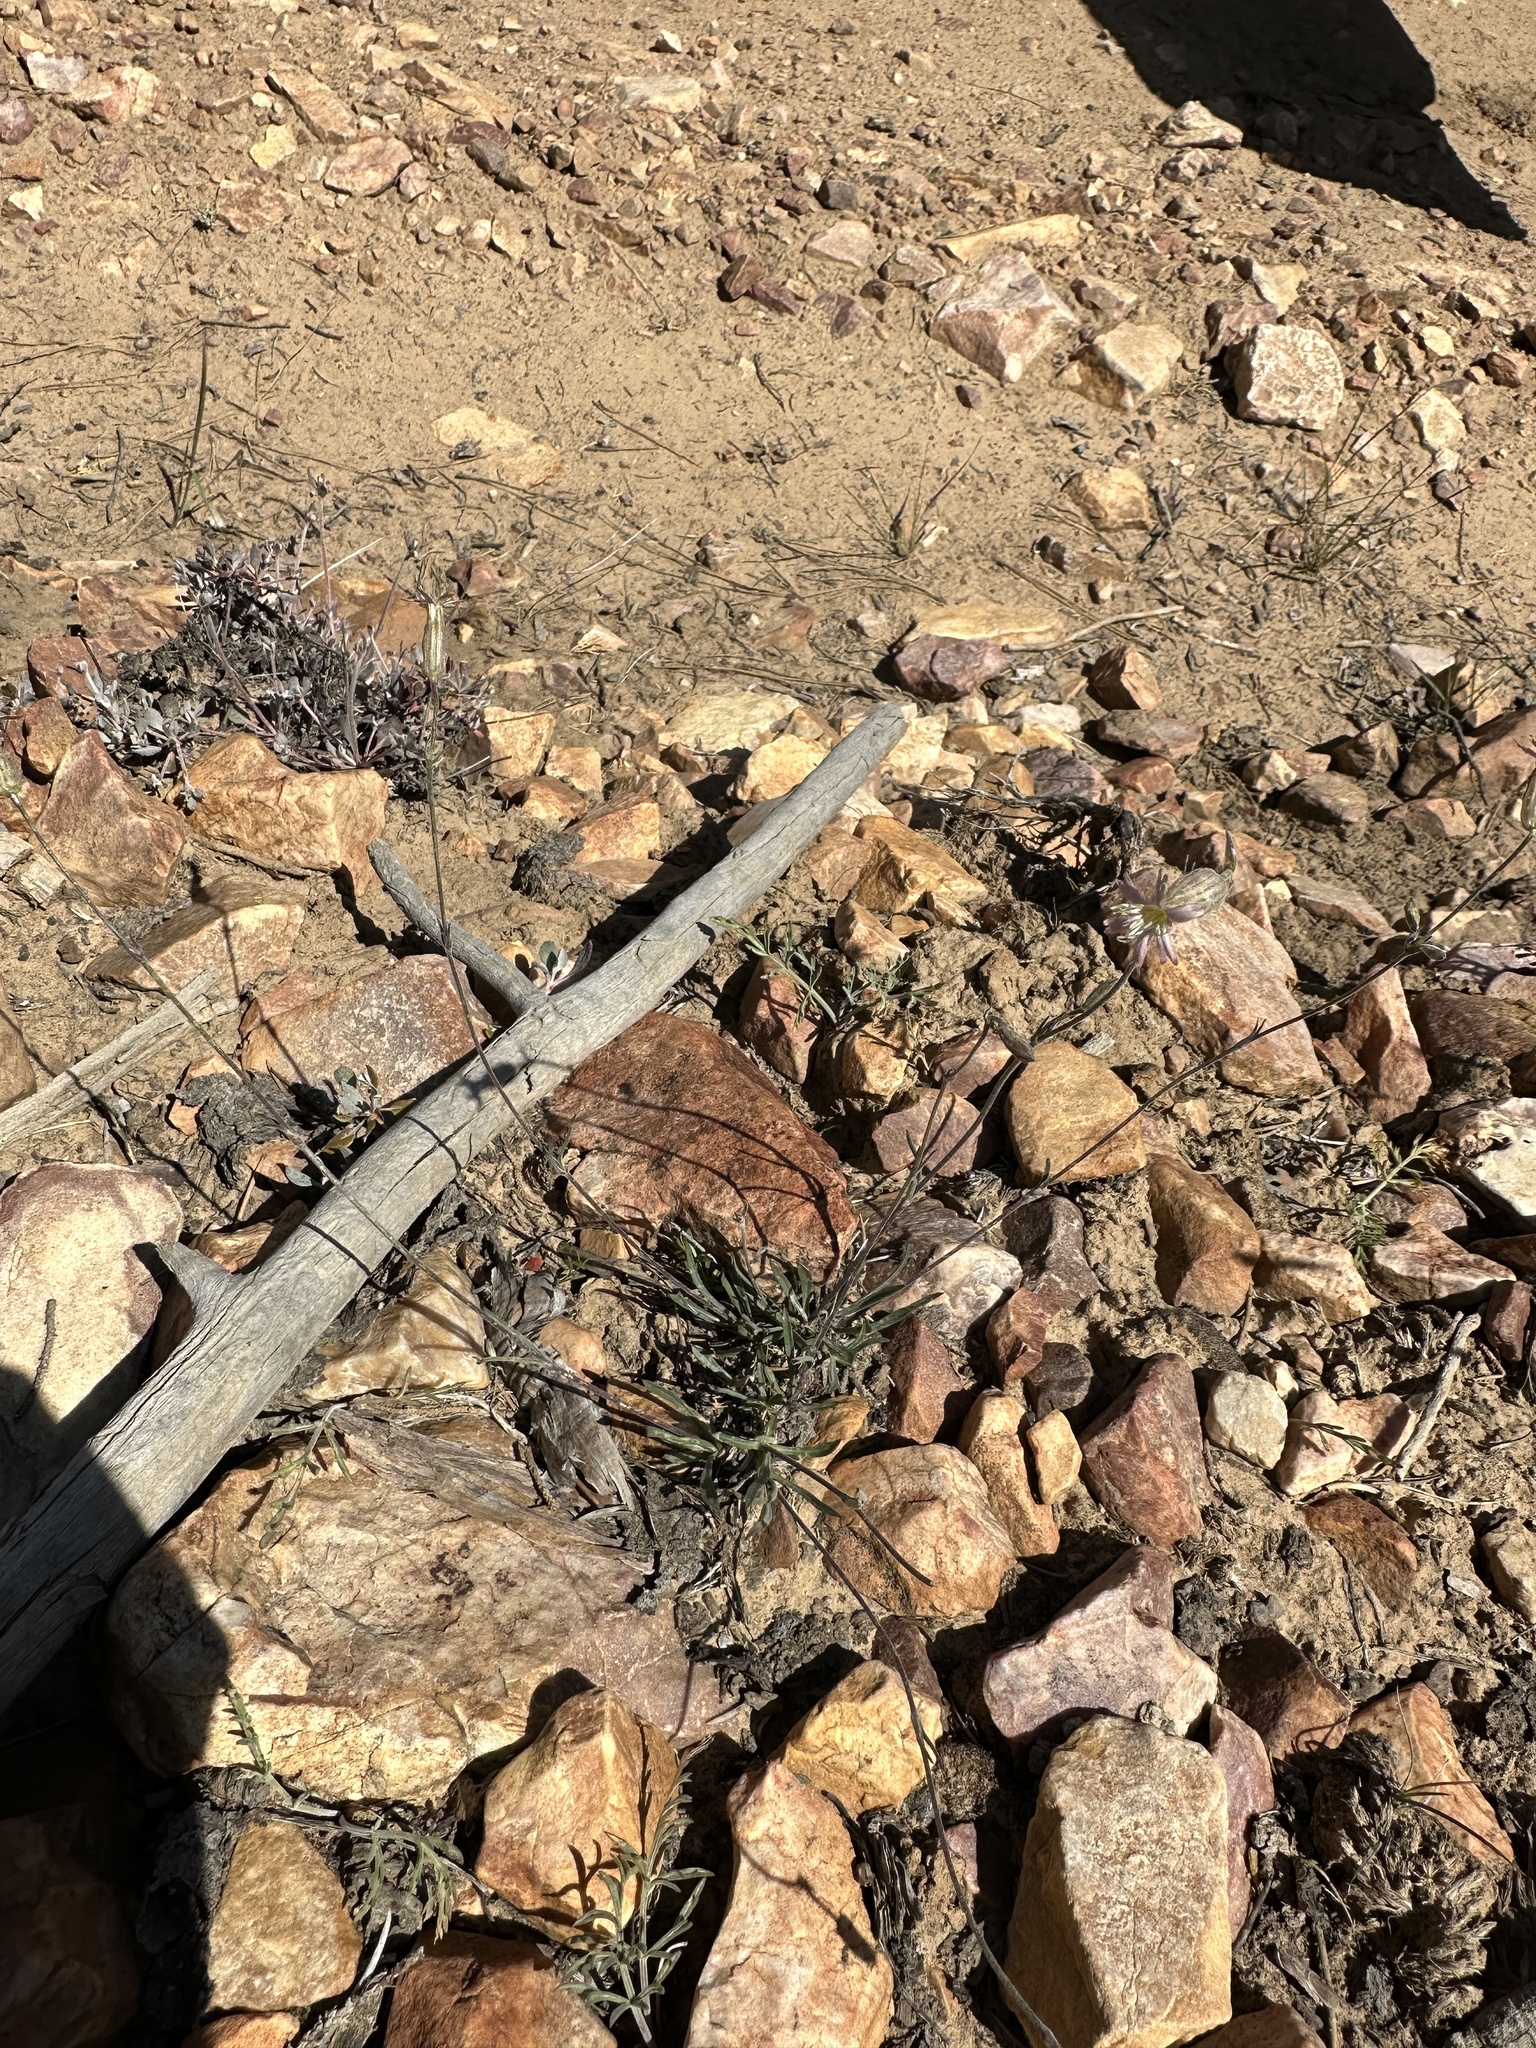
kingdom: Plantae
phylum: Tracheophyta
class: Magnoliopsida
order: Caryophyllales
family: Caryophyllaceae
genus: Silene
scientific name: Silene verecunda
